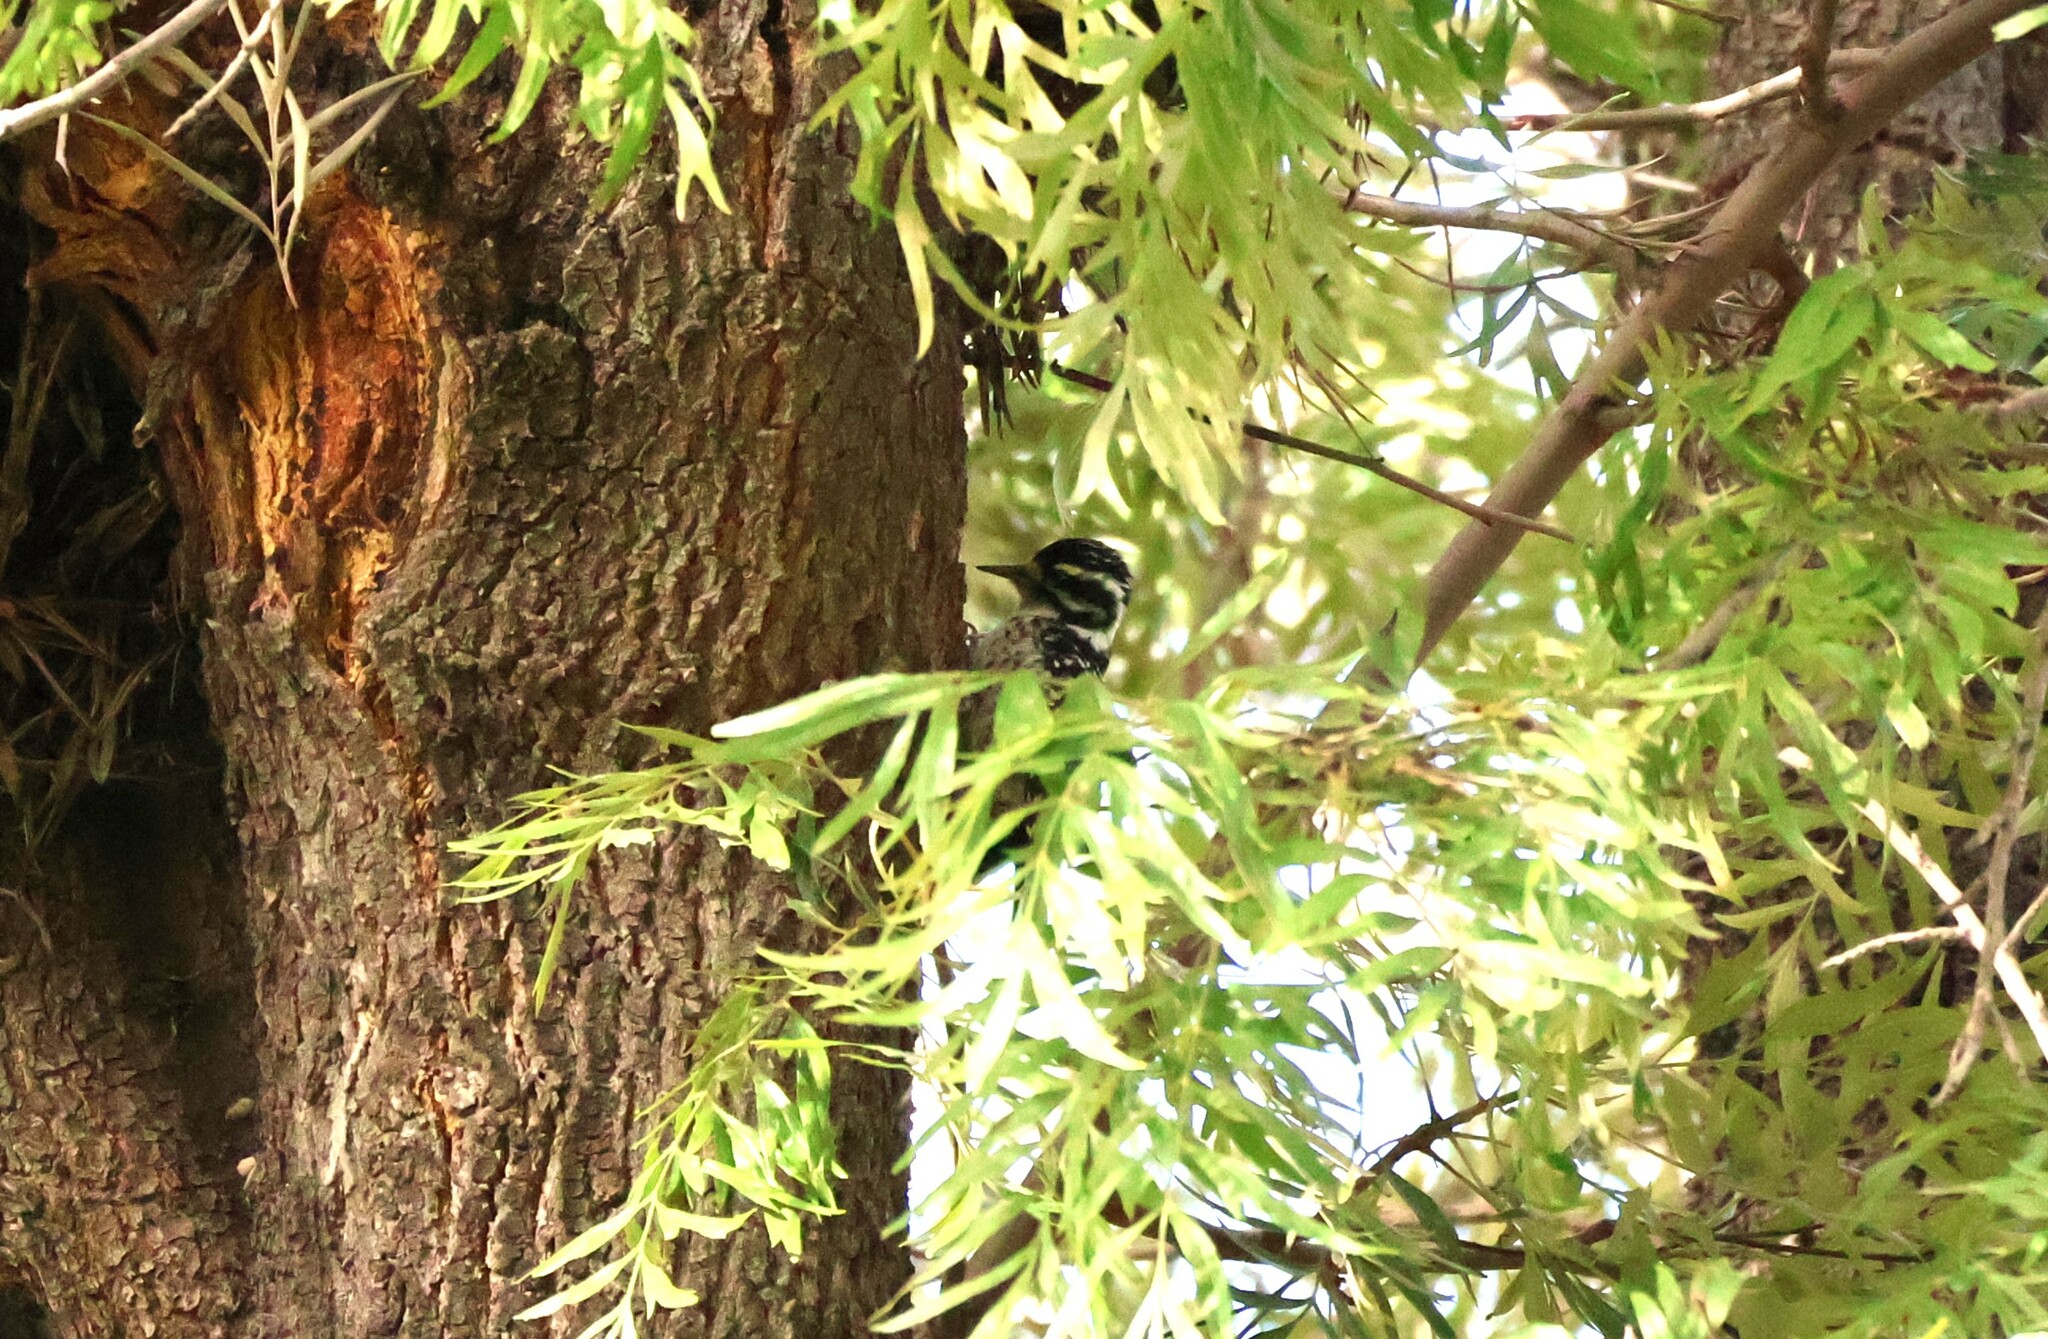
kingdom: Animalia
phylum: Chordata
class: Aves
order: Piciformes
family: Picidae
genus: Dryobates
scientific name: Dryobates nuttallii
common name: Nuttall's woodpecker
